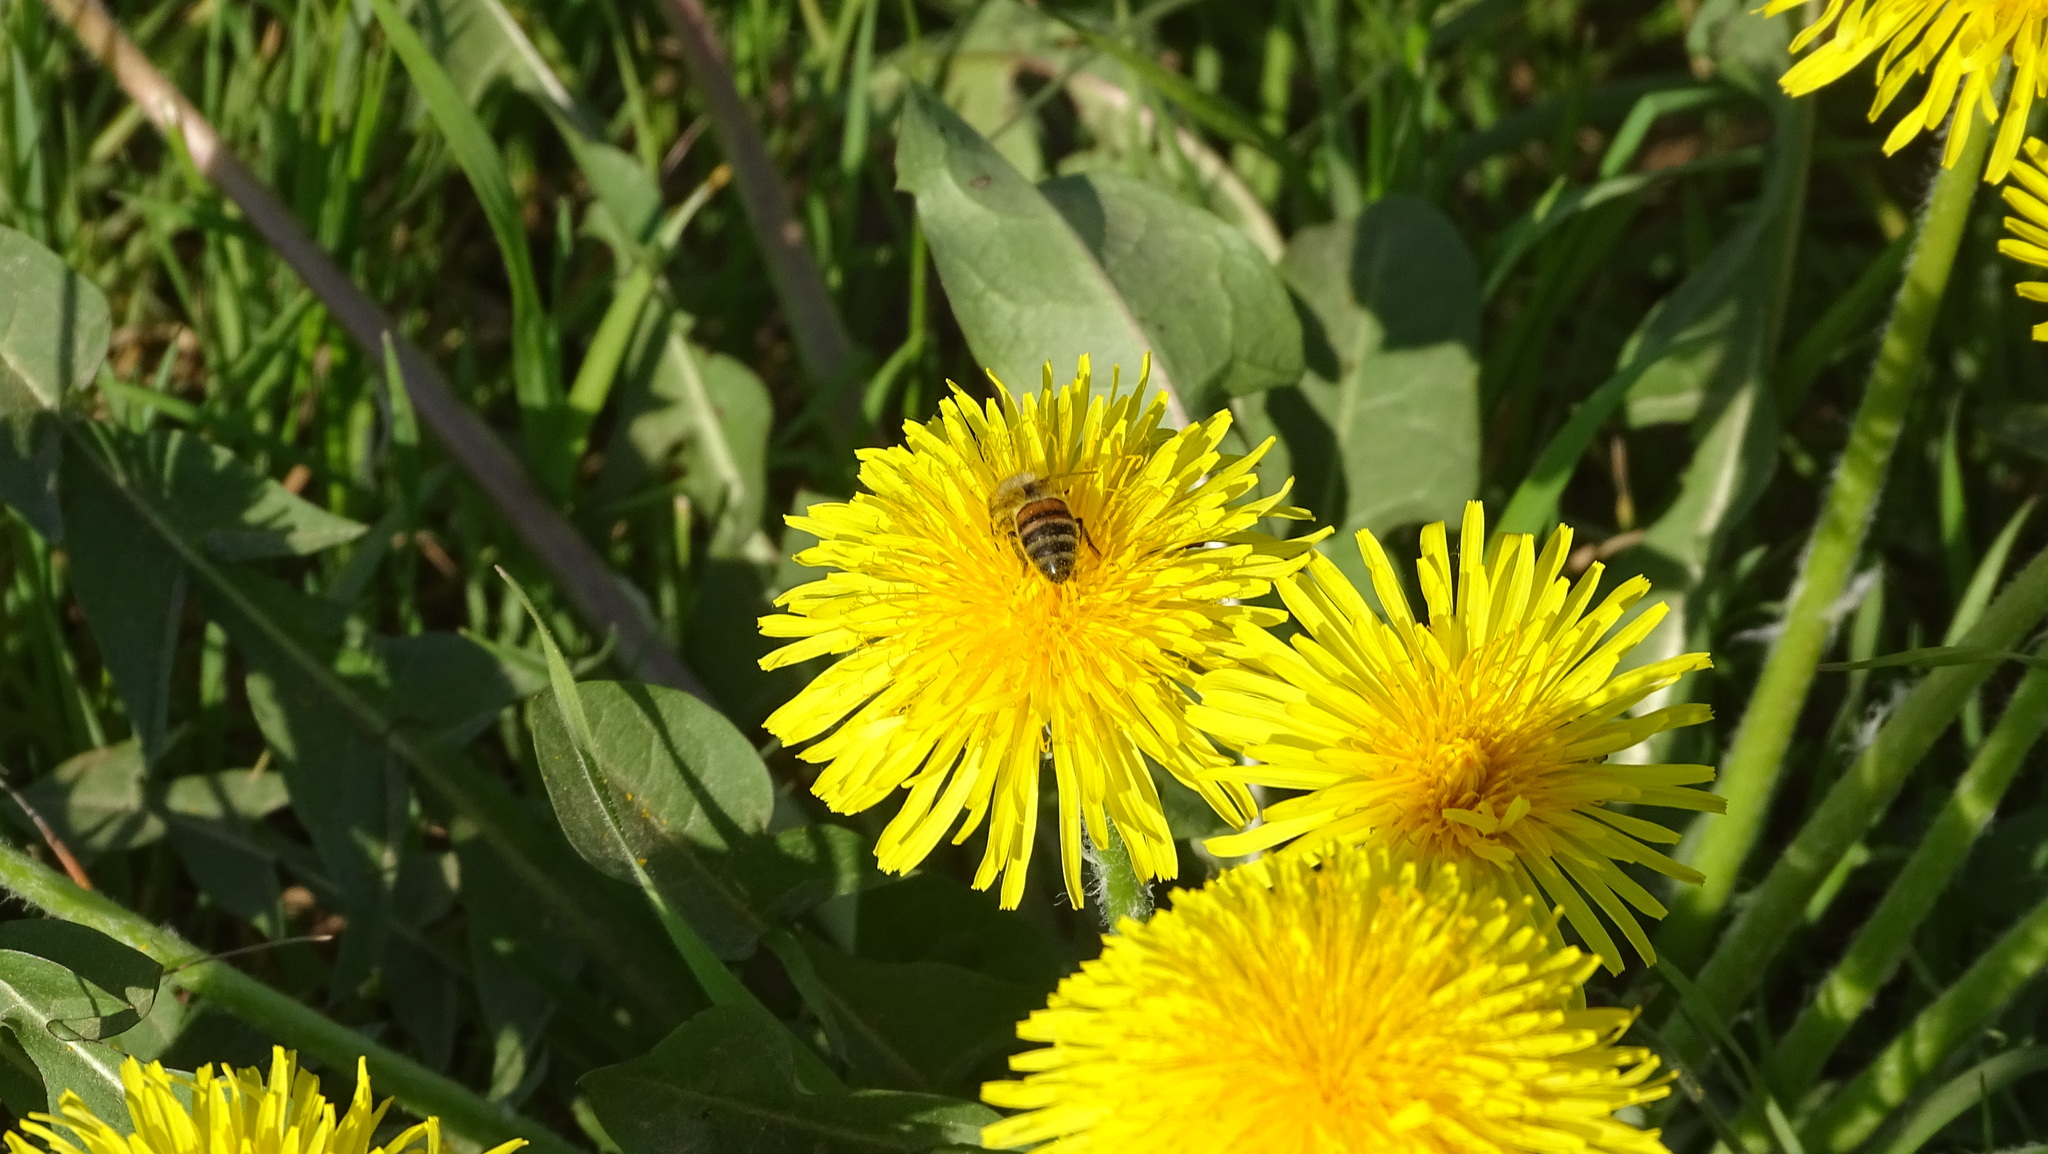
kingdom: Animalia
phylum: Arthropoda
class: Insecta
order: Hymenoptera
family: Apidae
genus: Apis
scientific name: Apis mellifera
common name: Honey bee
